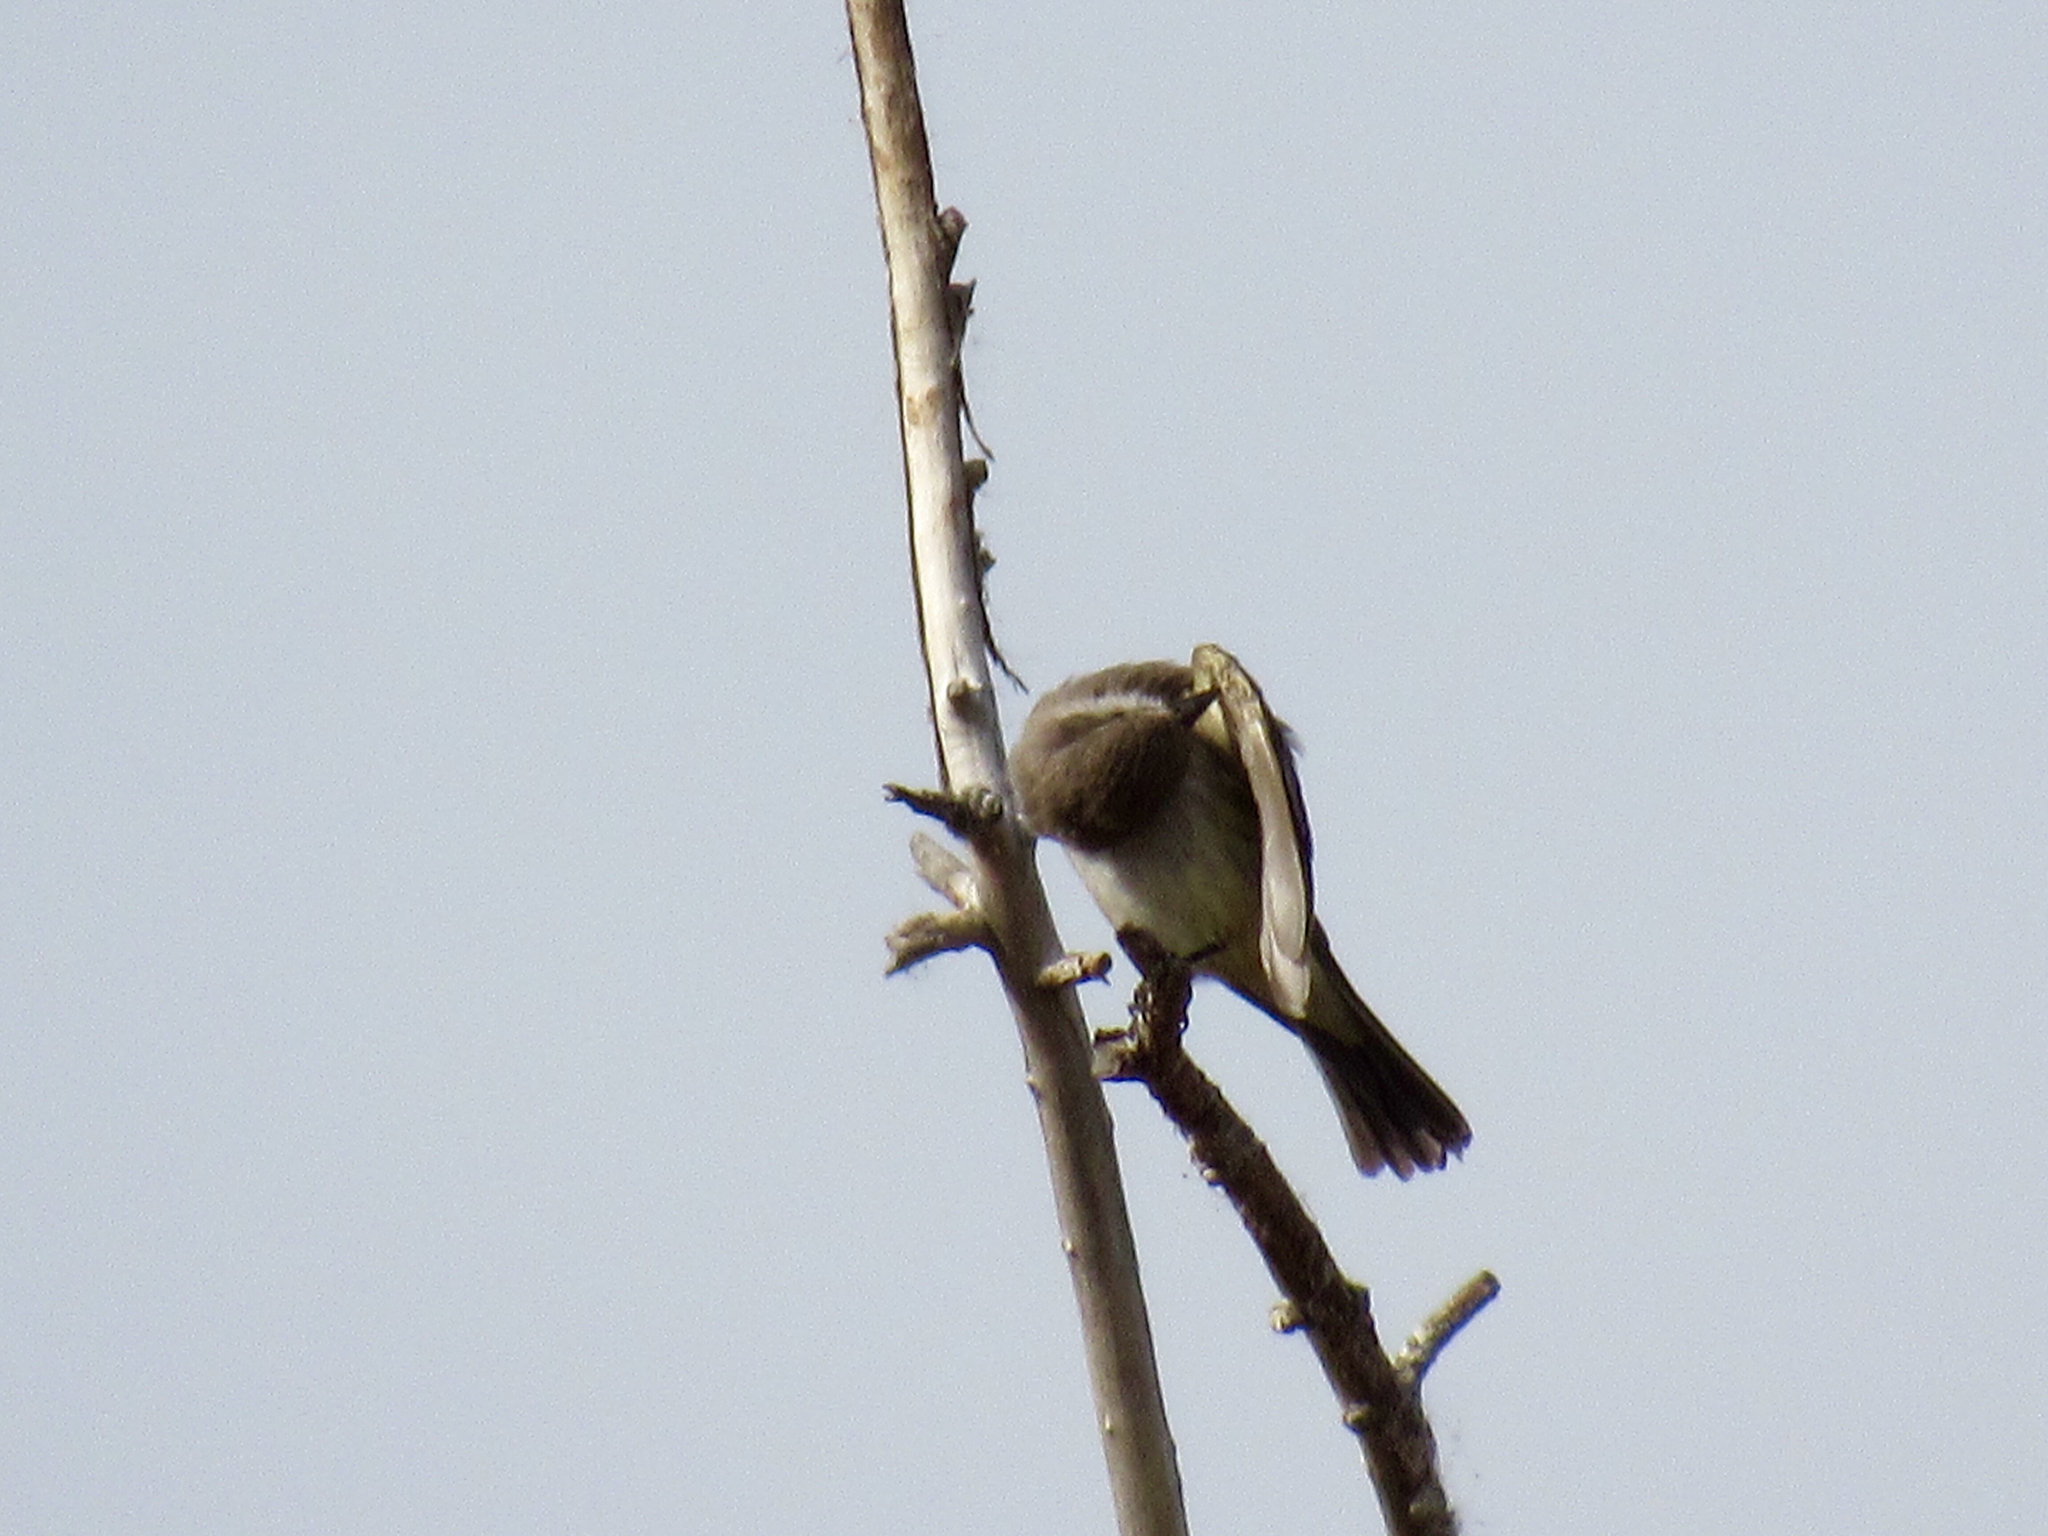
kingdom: Animalia
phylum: Chordata
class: Aves
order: Passeriformes
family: Tyrannidae
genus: Pyrocephalus
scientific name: Pyrocephalus rubinus
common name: Vermilion flycatcher
